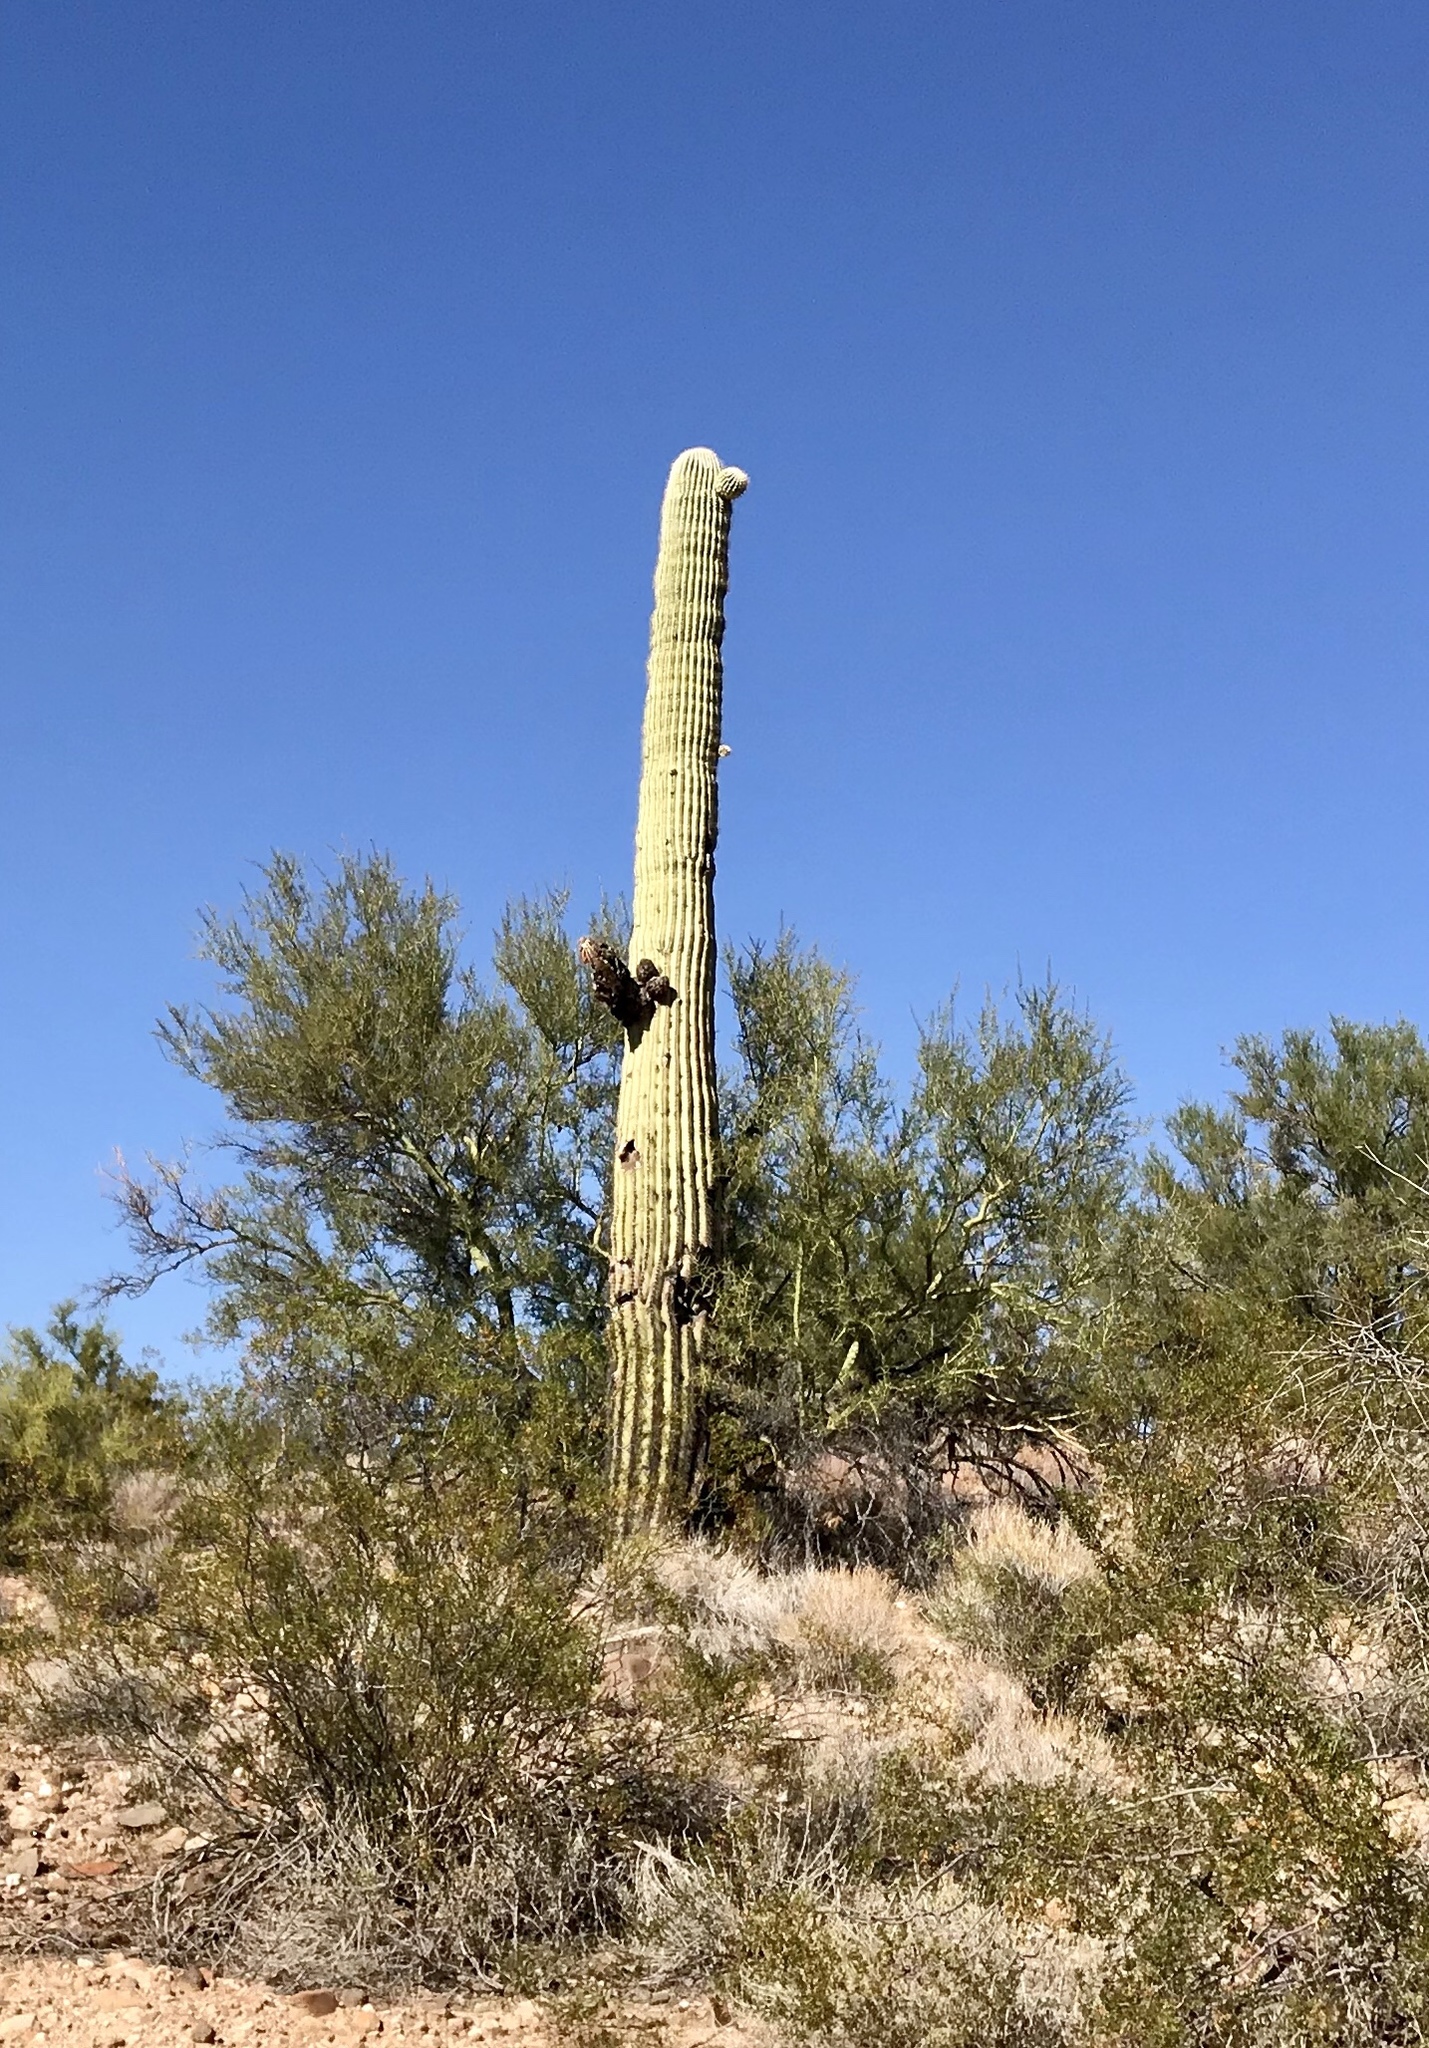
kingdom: Plantae
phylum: Tracheophyta
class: Magnoliopsida
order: Caryophyllales
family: Cactaceae
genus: Carnegiea
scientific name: Carnegiea gigantea
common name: Saguaro
